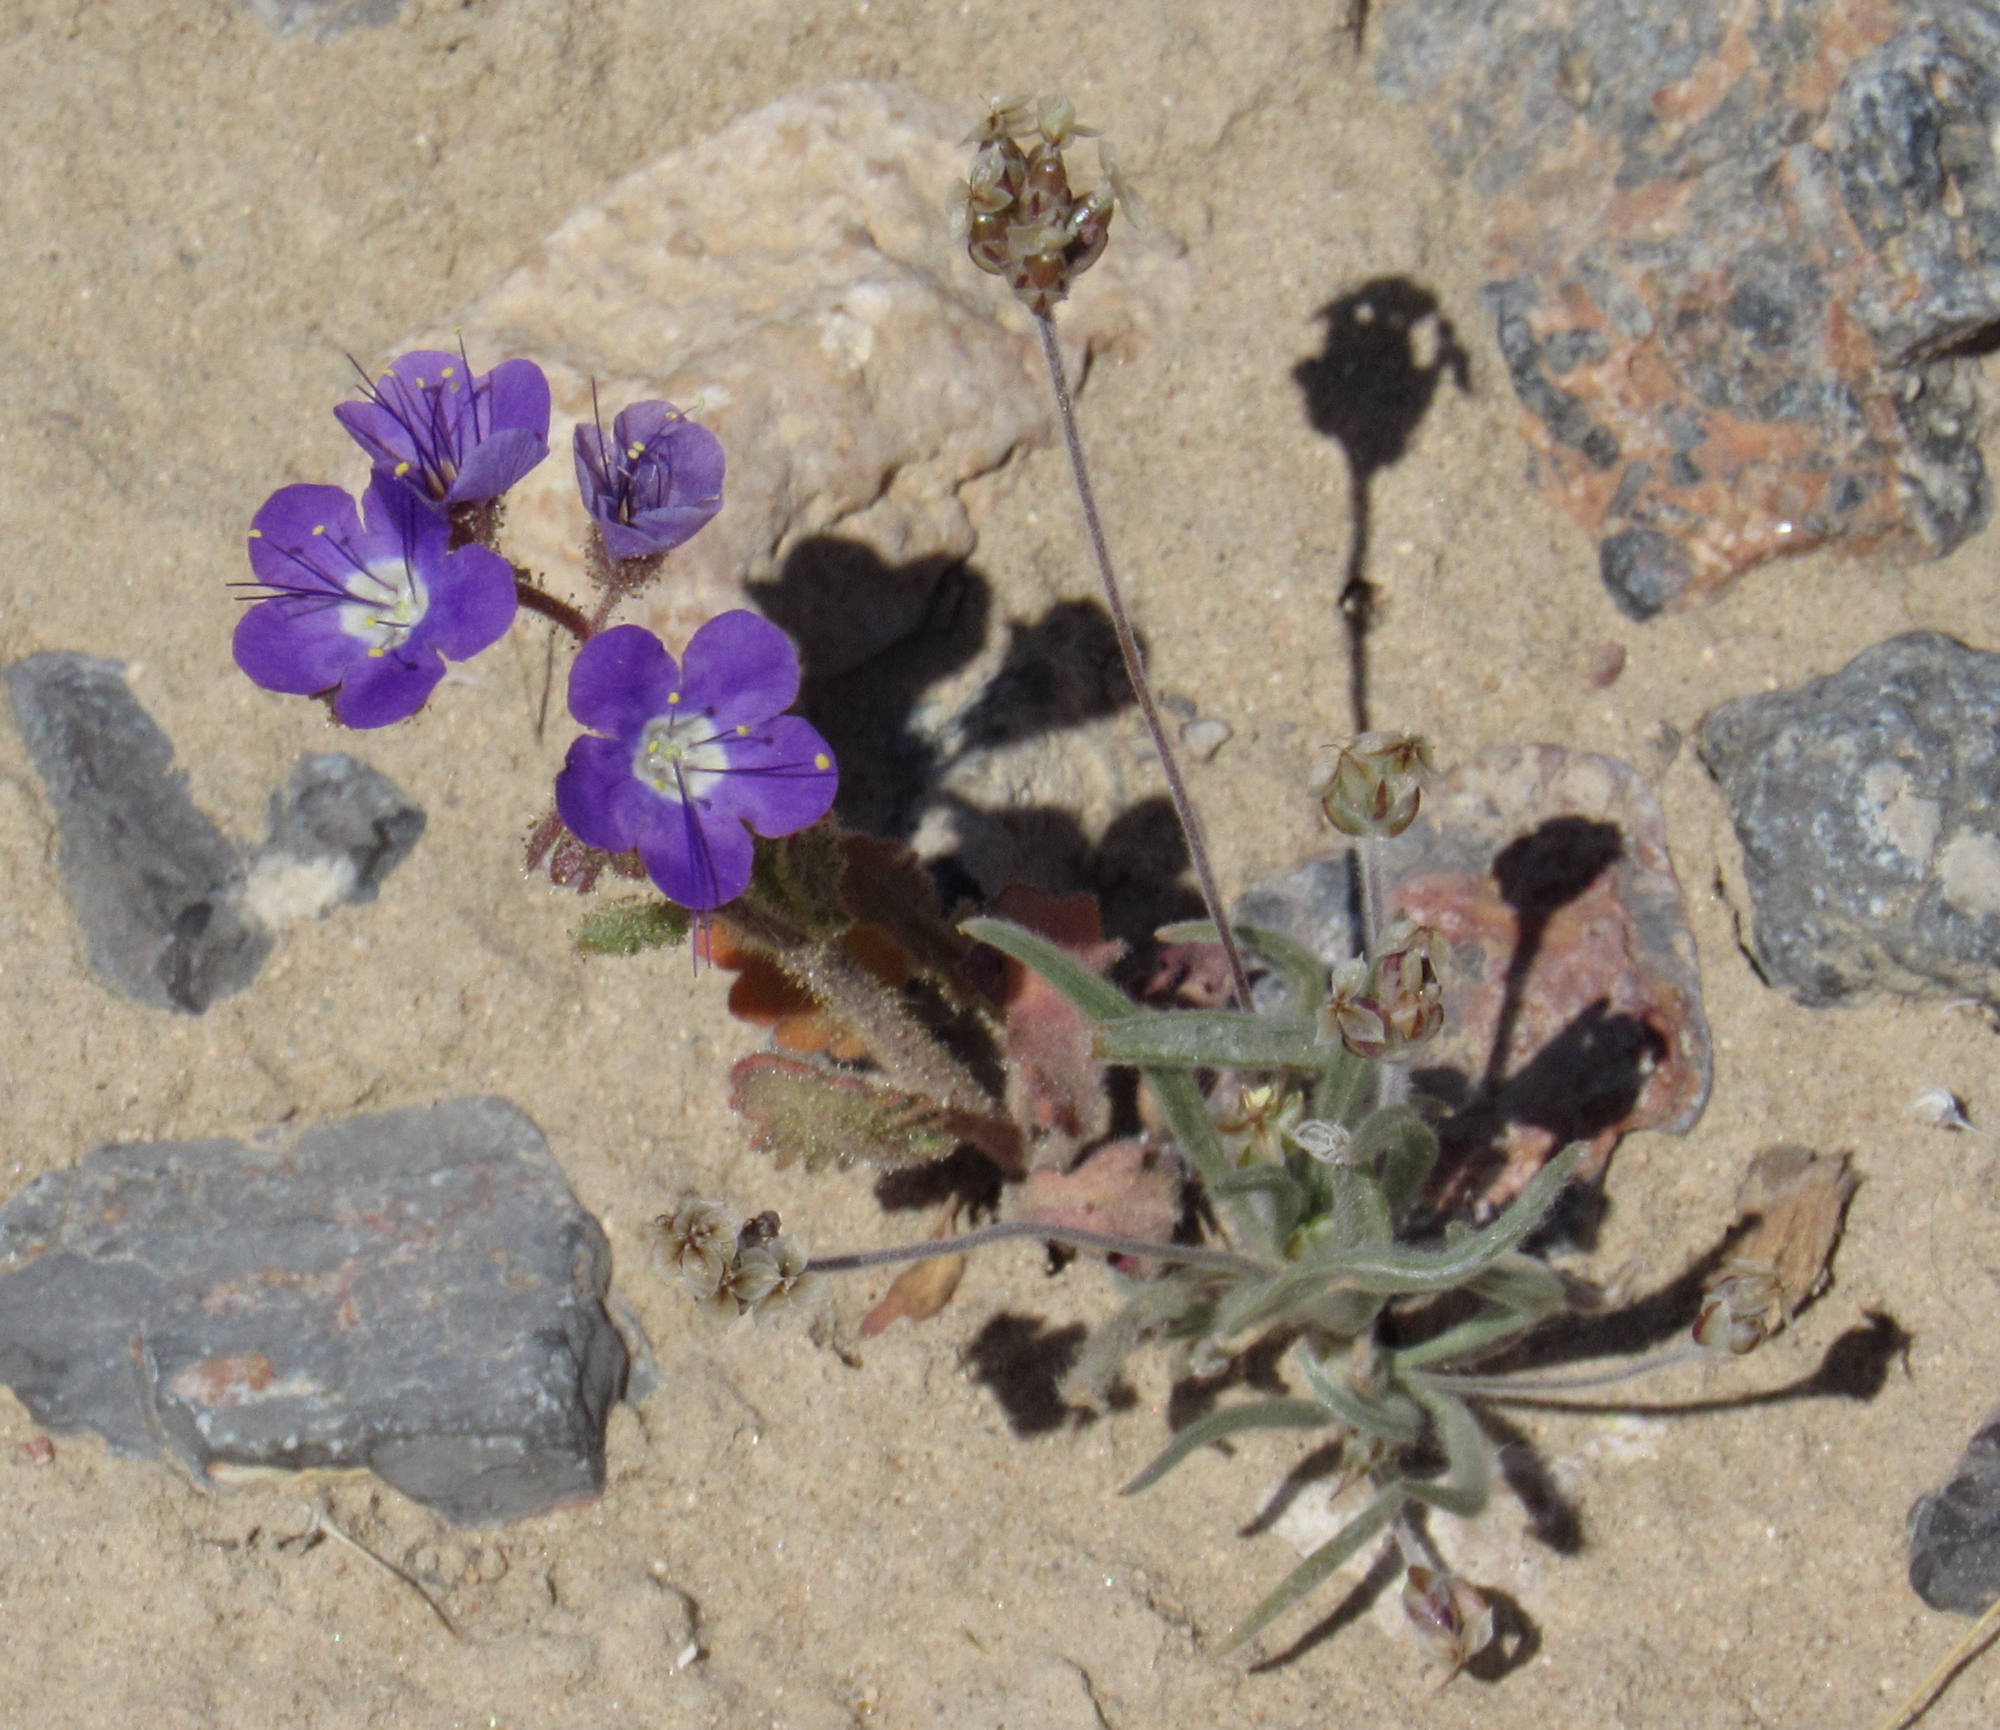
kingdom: Plantae
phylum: Tracheophyta
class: Magnoliopsida
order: Boraginales
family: Hydrophyllaceae
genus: Phacelia
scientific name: Phacelia crenulata
